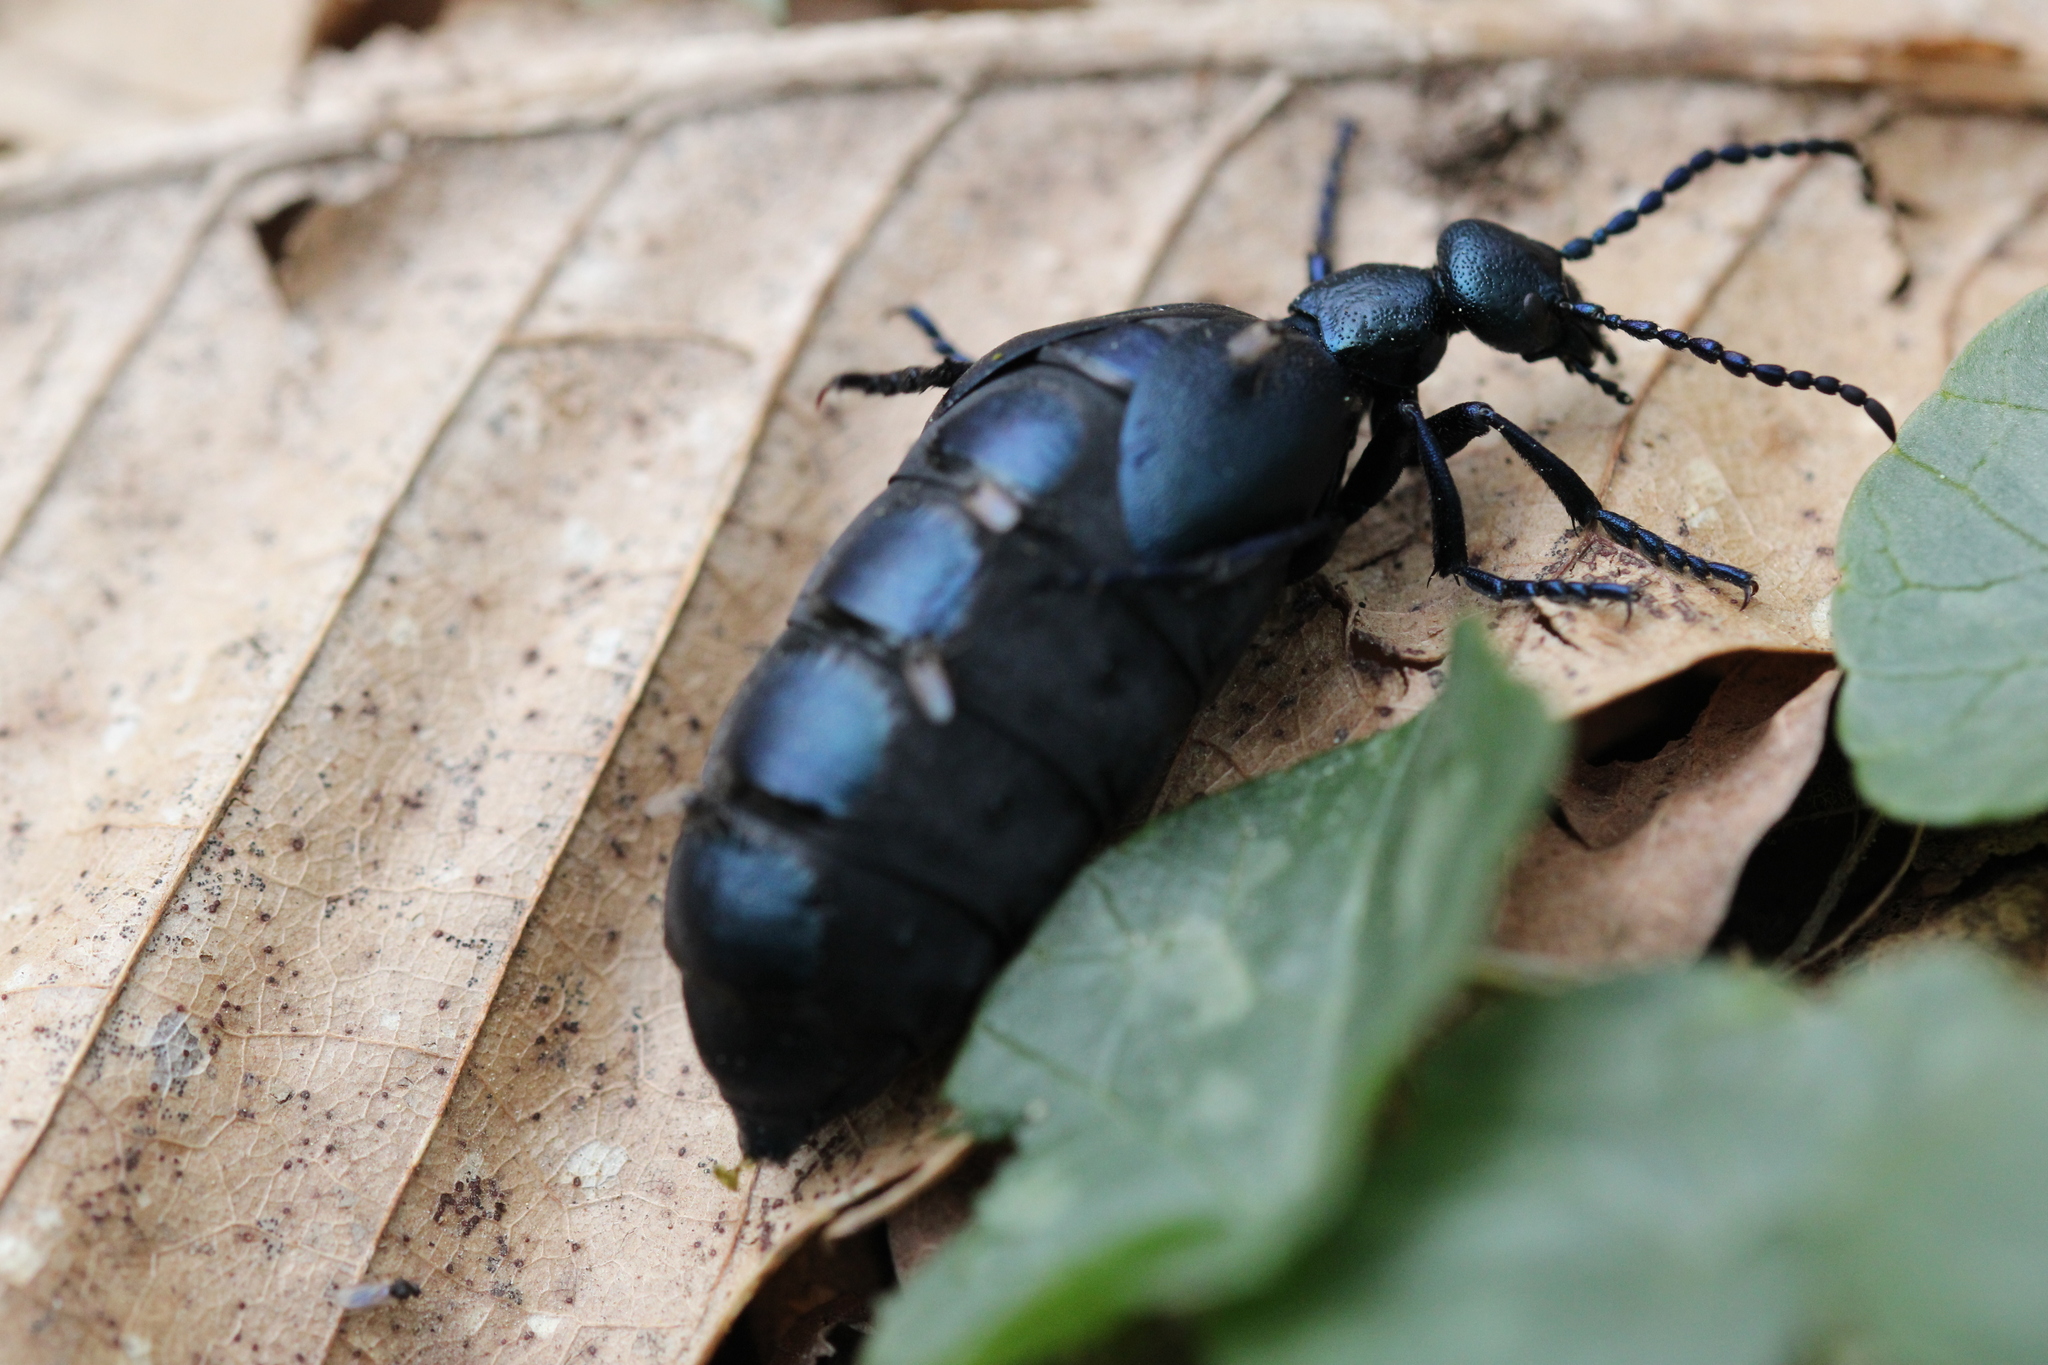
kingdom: Animalia
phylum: Arthropoda
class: Insecta
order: Coleoptera
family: Meloidae
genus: Meloe
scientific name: Meloe violaceus
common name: Violet oil-beetle
